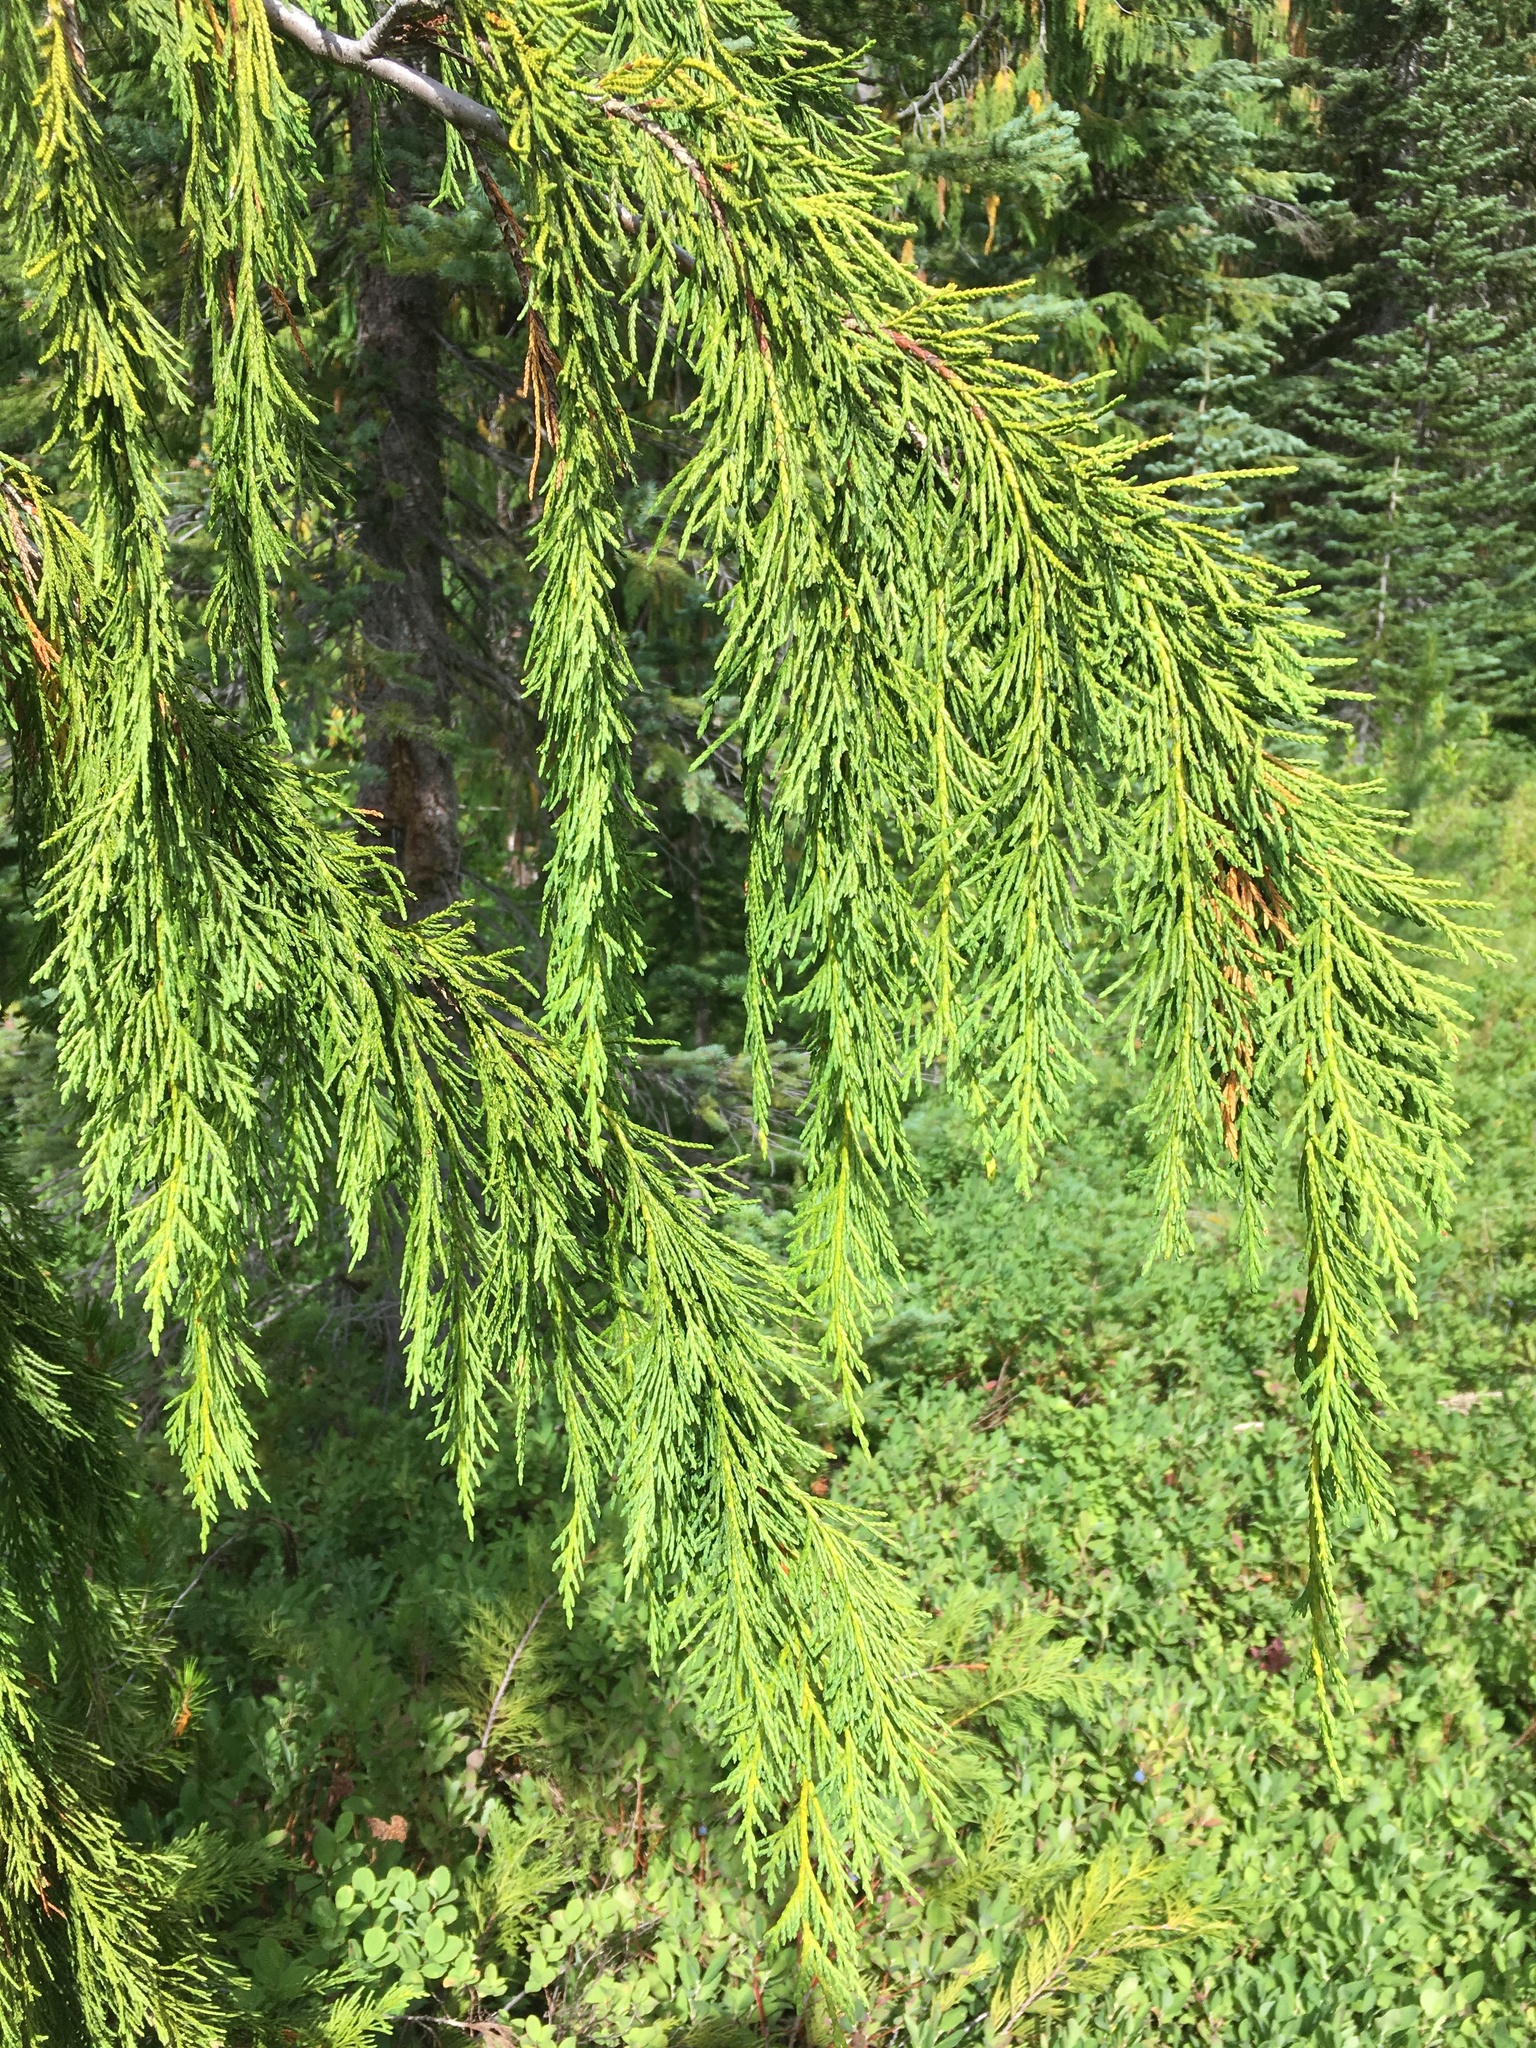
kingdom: Plantae
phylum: Tracheophyta
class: Pinopsida
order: Pinales
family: Cupressaceae
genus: Xanthocyparis
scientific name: Xanthocyparis nootkatensis
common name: Nootka cypress
